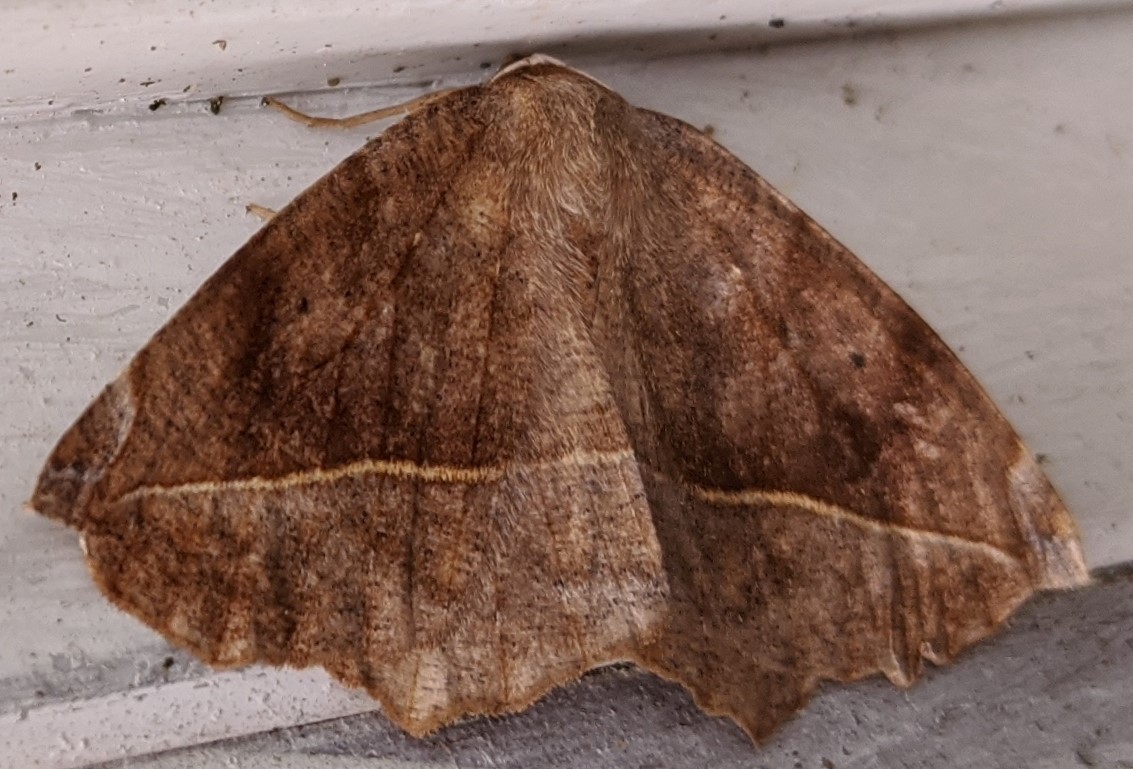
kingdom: Animalia
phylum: Arthropoda
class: Insecta
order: Lepidoptera
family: Geometridae
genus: Eutrapela
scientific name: Eutrapela clemataria
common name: Curved-toothed geometer
